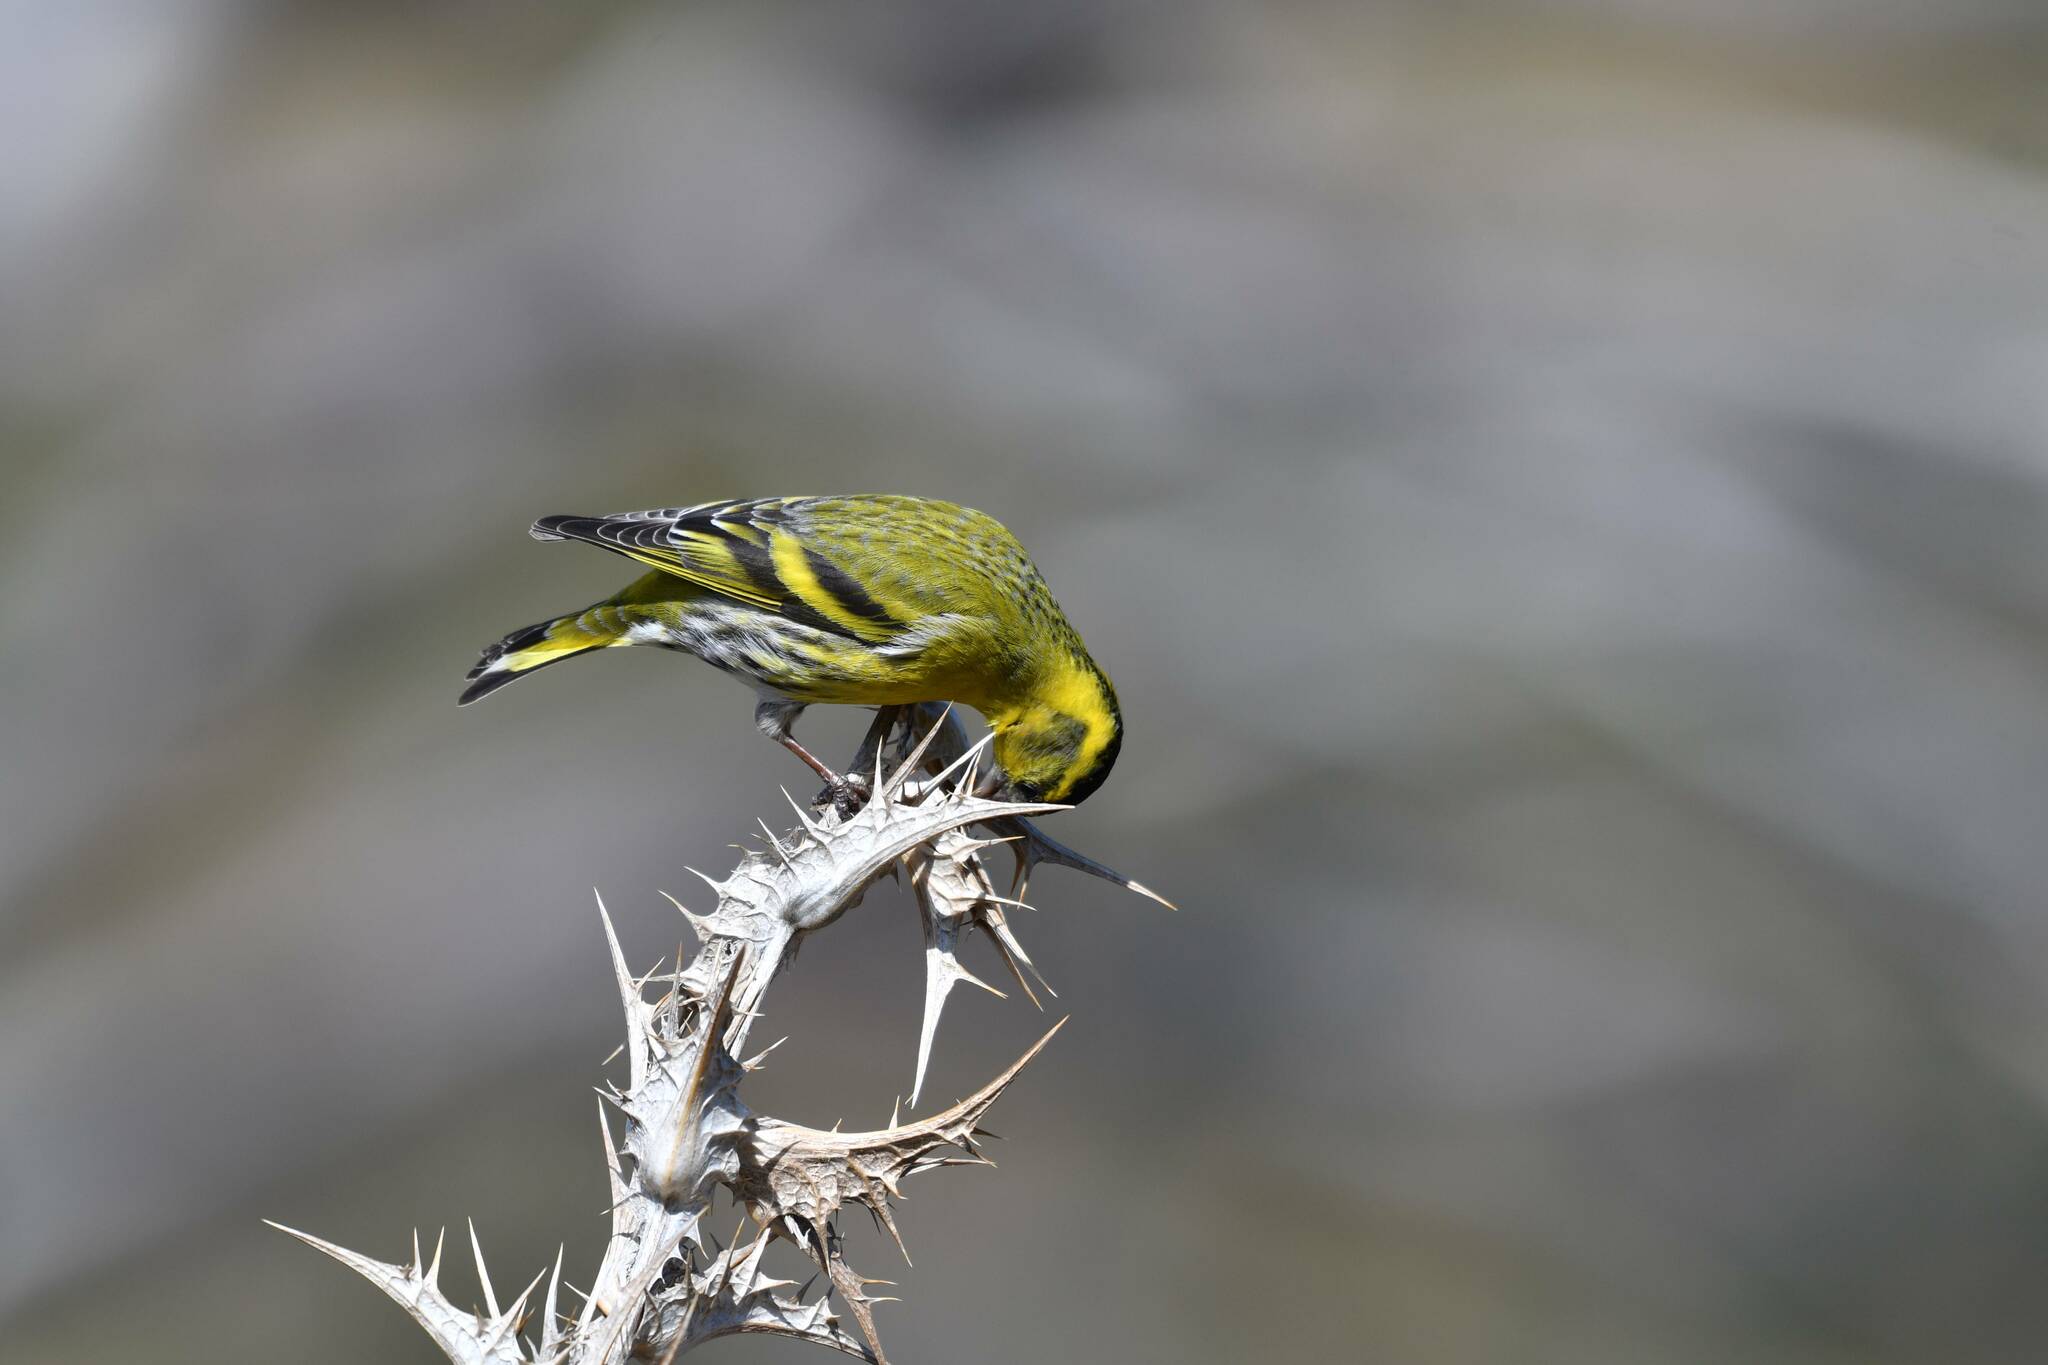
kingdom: Animalia
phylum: Chordata
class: Aves
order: Passeriformes
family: Fringillidae
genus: Spinus
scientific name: Spinus spinus
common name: Eurasian siskin
